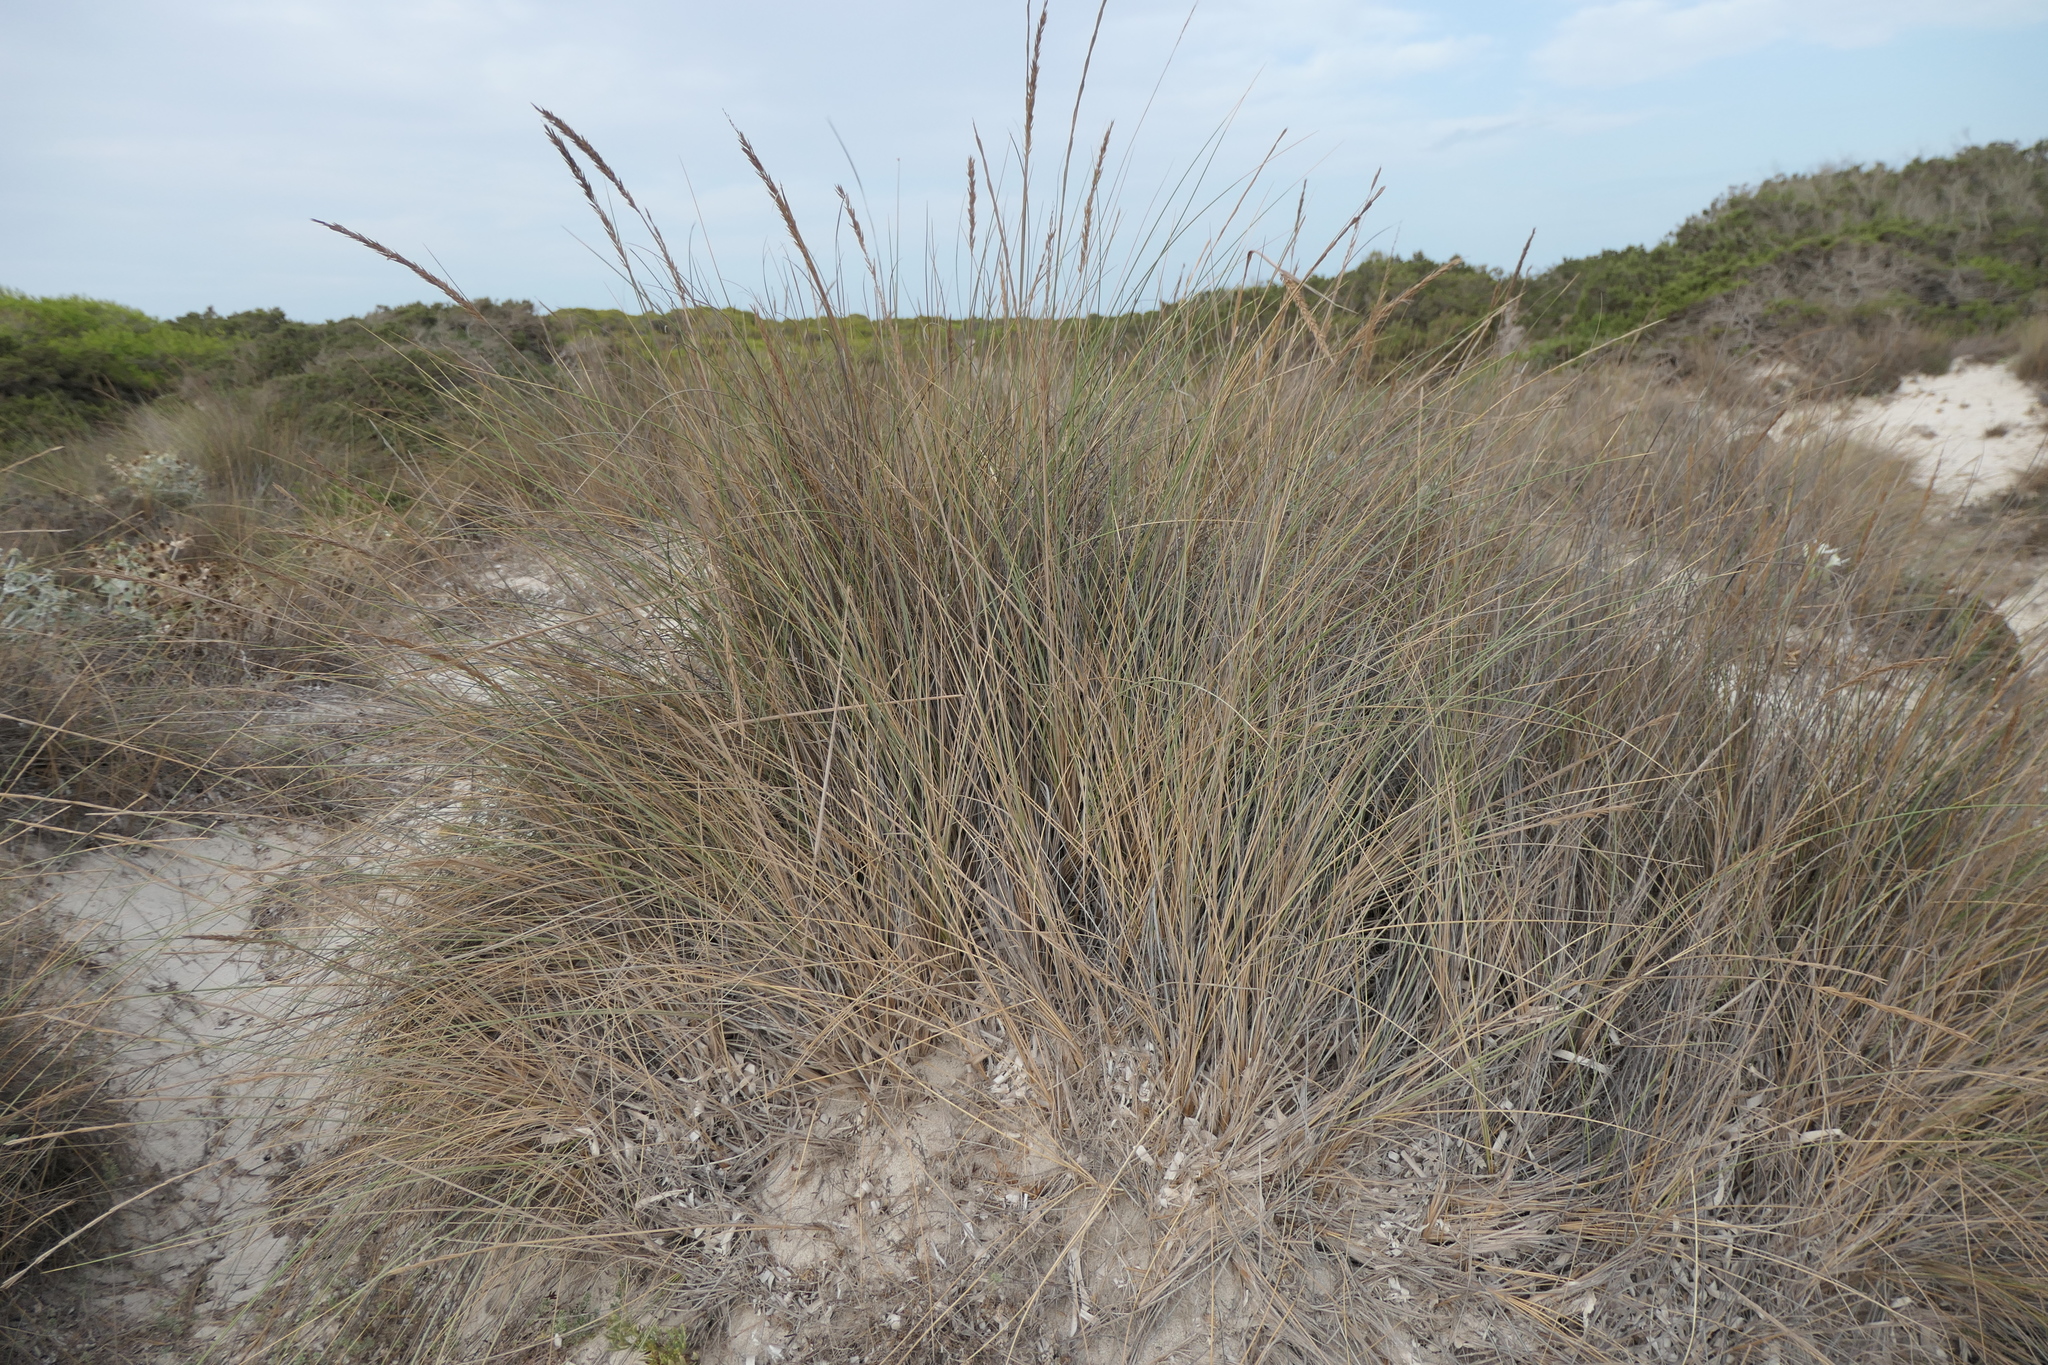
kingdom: Plantae
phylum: Tracheophyta
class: Liliopsida
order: Poales
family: Poaceae
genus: Calamagrostis
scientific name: Calamagrostis arenaria
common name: European beachgrass
